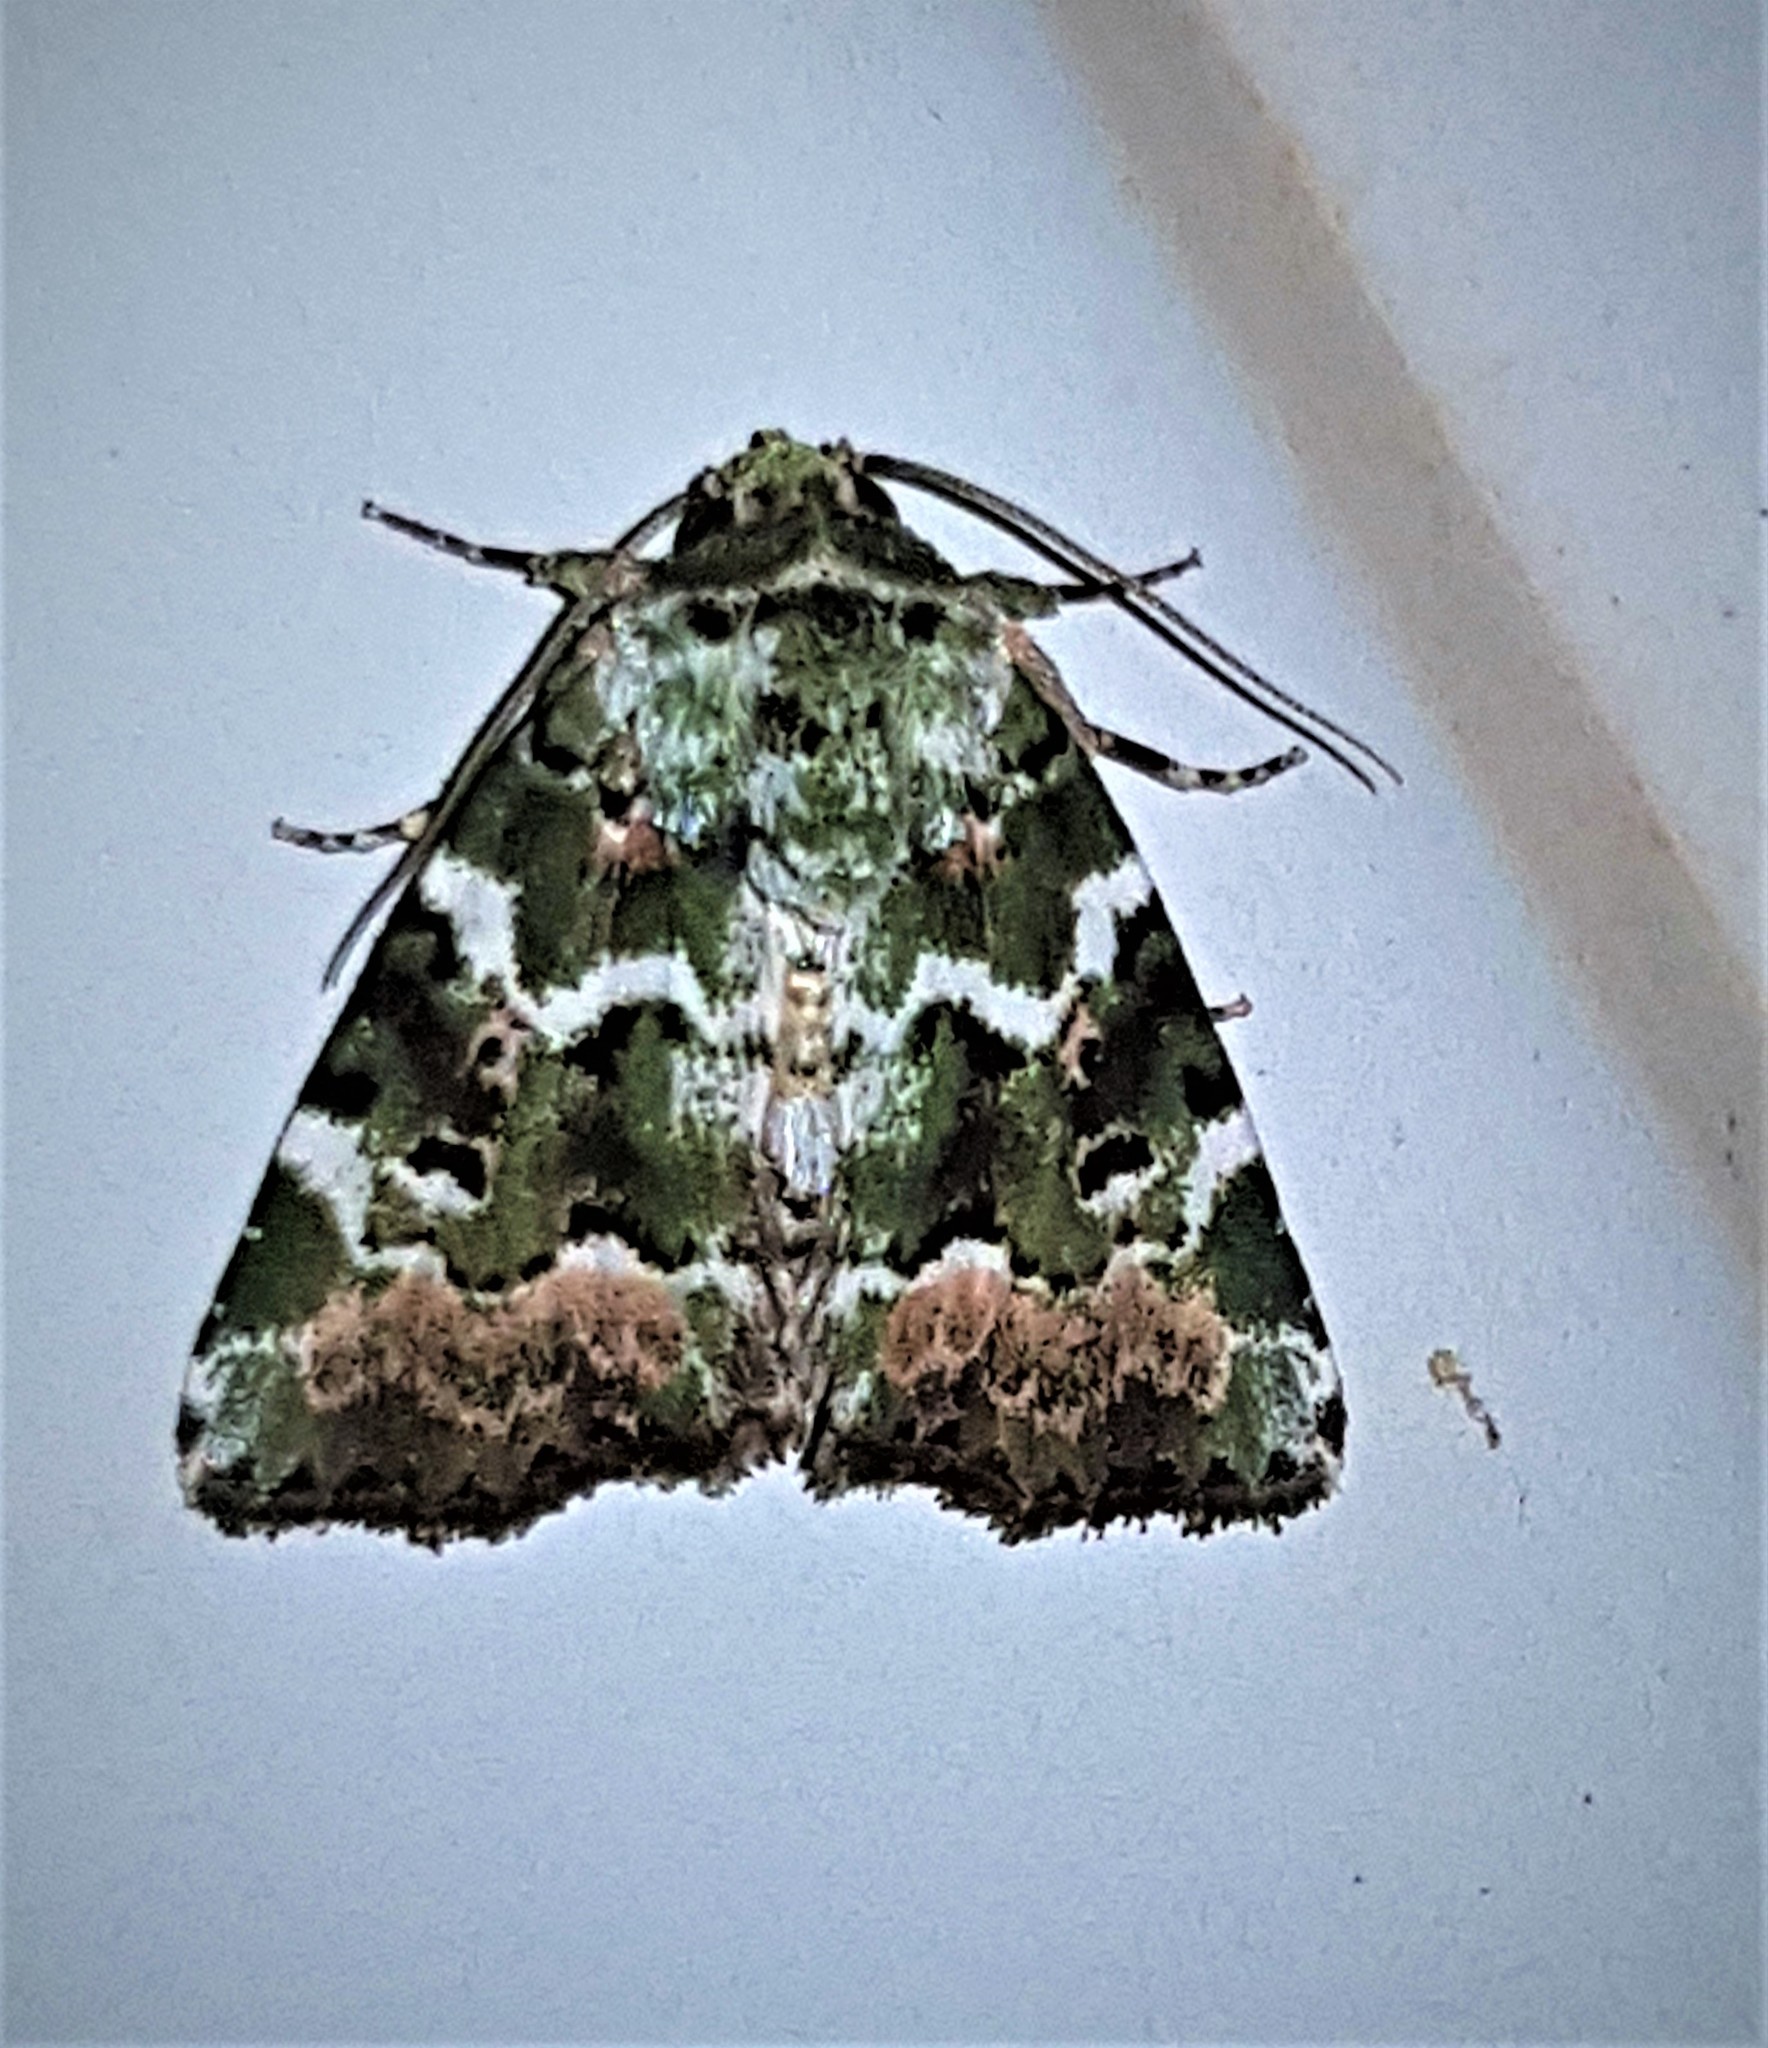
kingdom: Animalia
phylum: Arthropoda
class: Insecta
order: Lepidoptera
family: Noctuidae
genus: Chytonix
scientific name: Chytonix mniochroa
